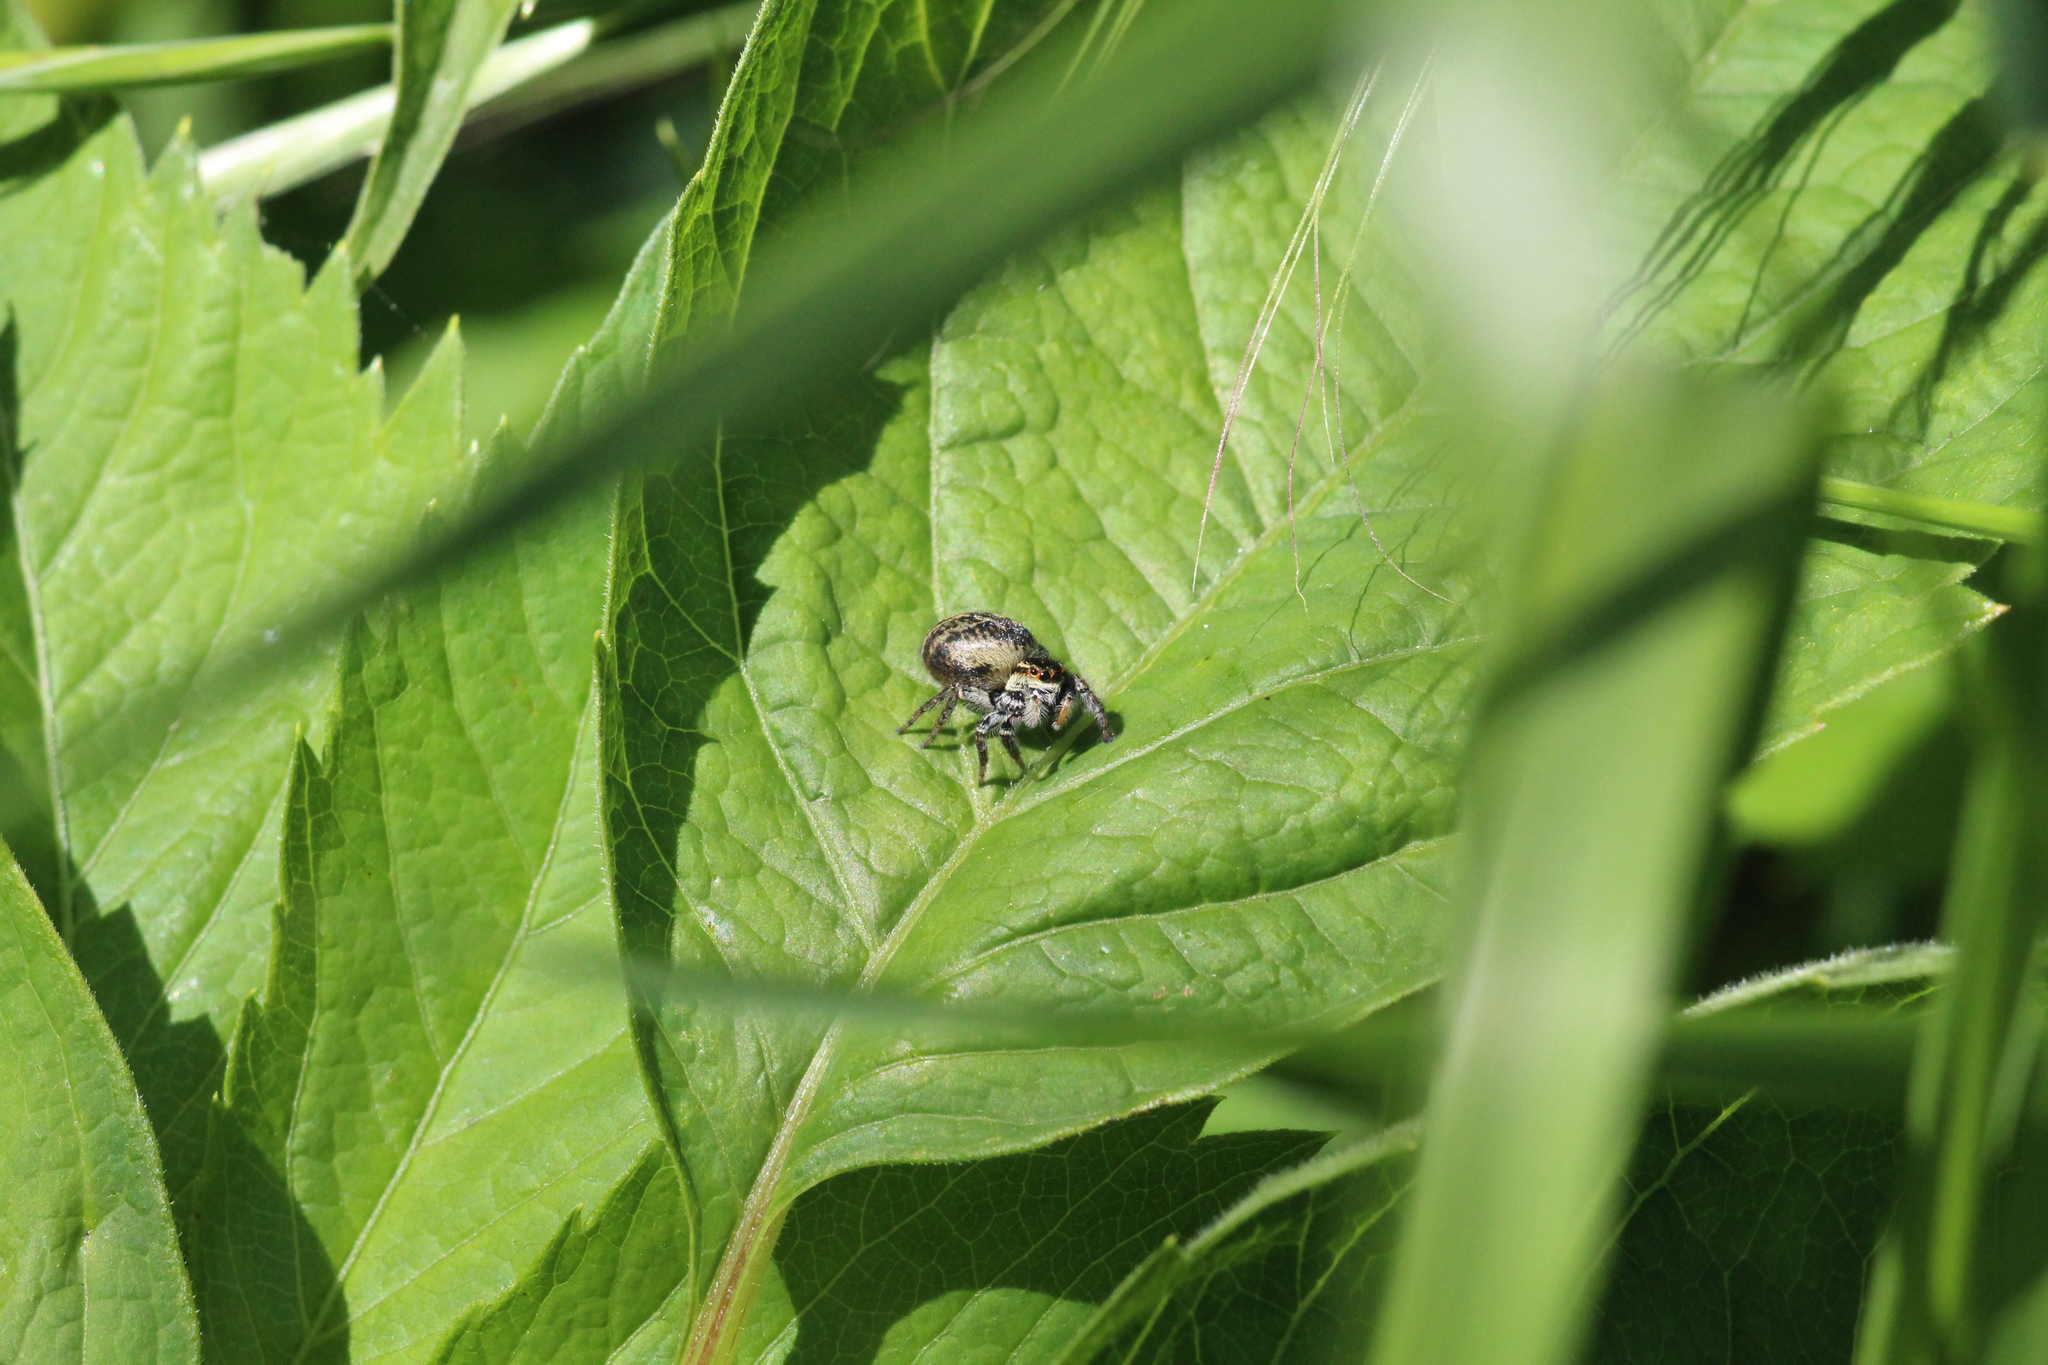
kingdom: Animalia
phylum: Arthropoda
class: Arachnida
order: Araneae
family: Salticidae
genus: Carrhotus
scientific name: Carrhotus xanthogramma
